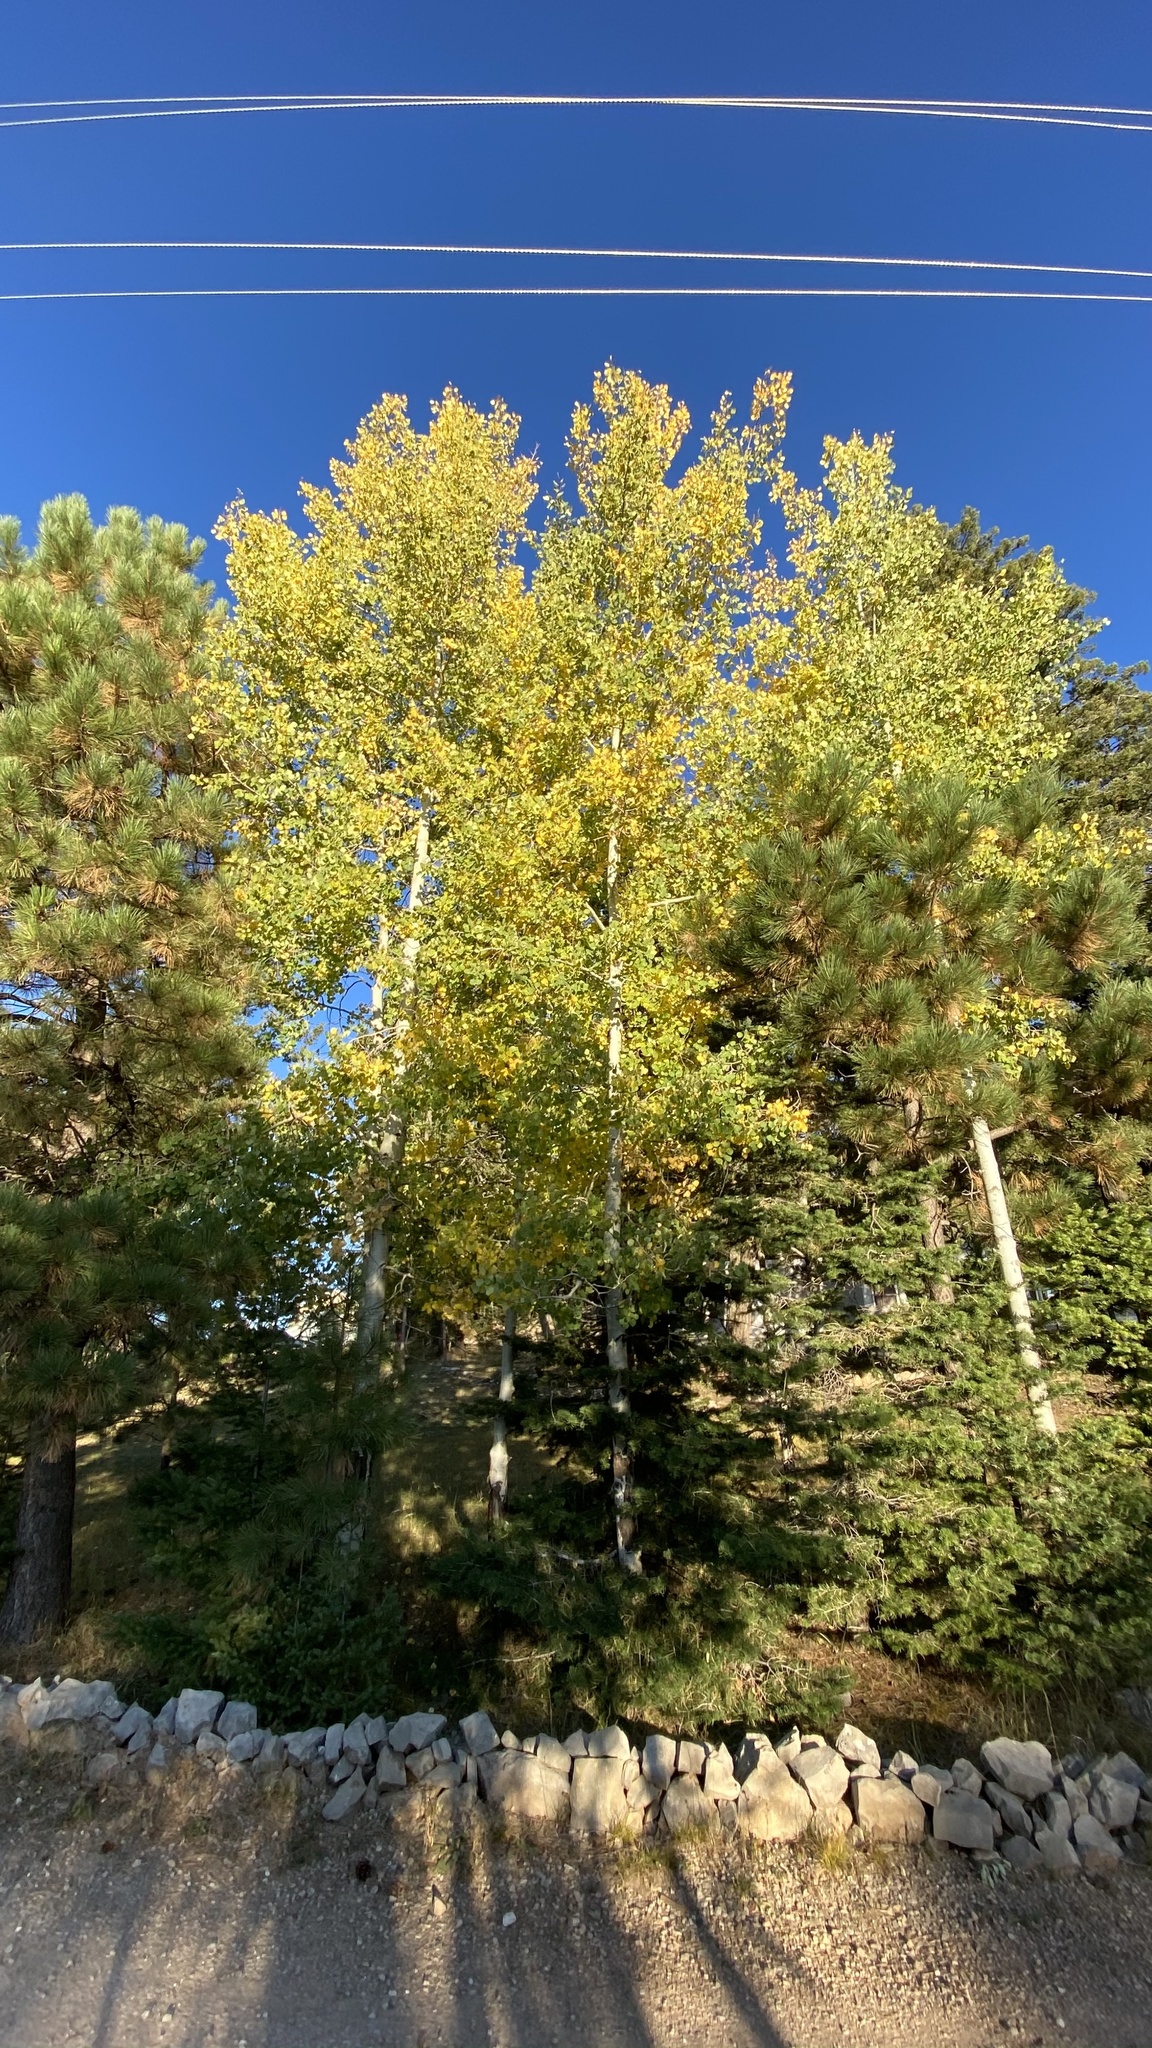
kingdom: Plantae
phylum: Tracheophyta
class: Magnoliopsida
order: Malpighiales
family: Salicaceae
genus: Populus
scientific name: Populus tremuloides
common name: Quaking aspen
